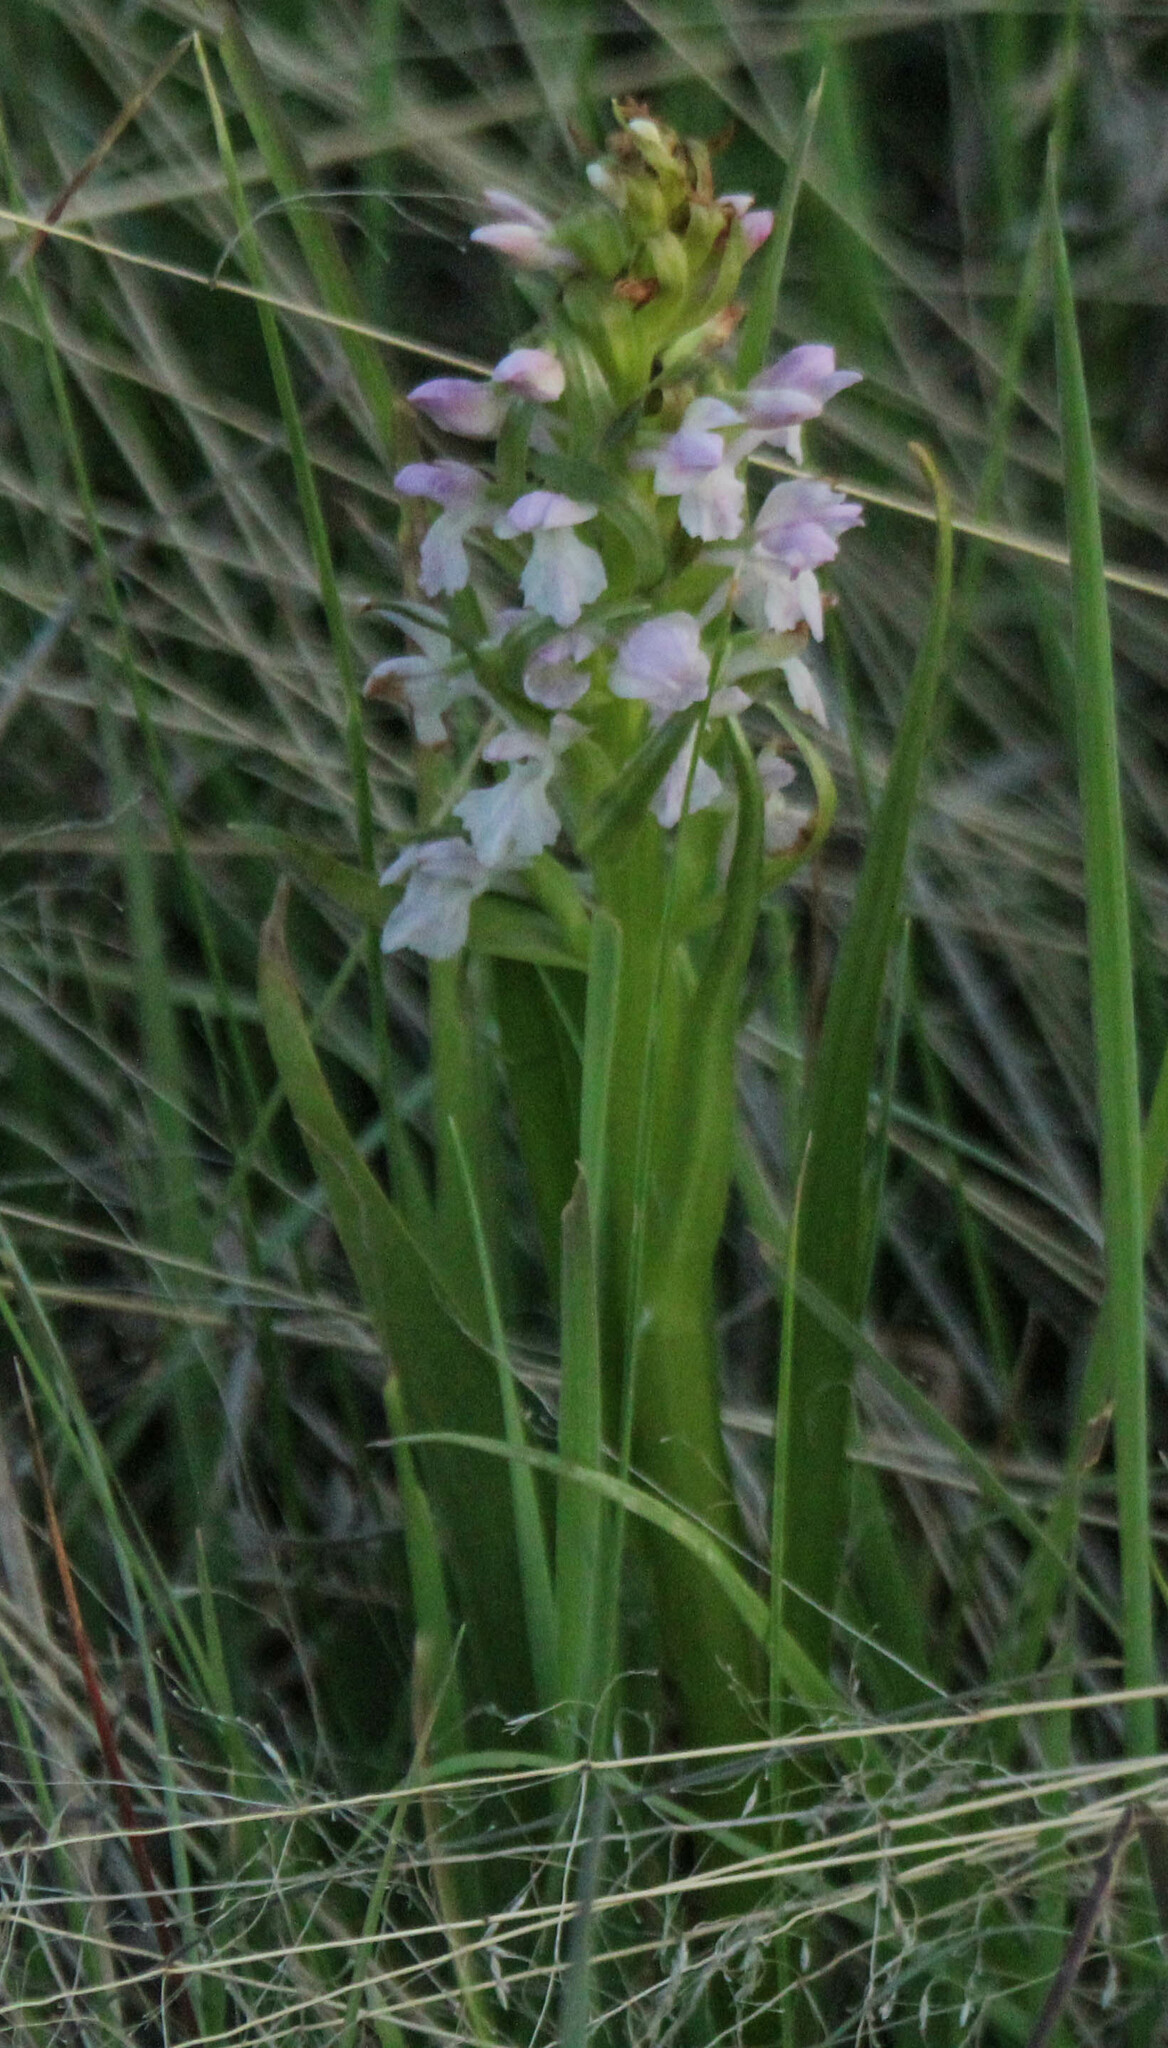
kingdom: Plantae
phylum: Tracheophyta
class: Liliopsida
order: Asparagales
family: Orchidaceae
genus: Dactylorhiza
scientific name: Dactylorhiza incarnata
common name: Early marsh-orchid
